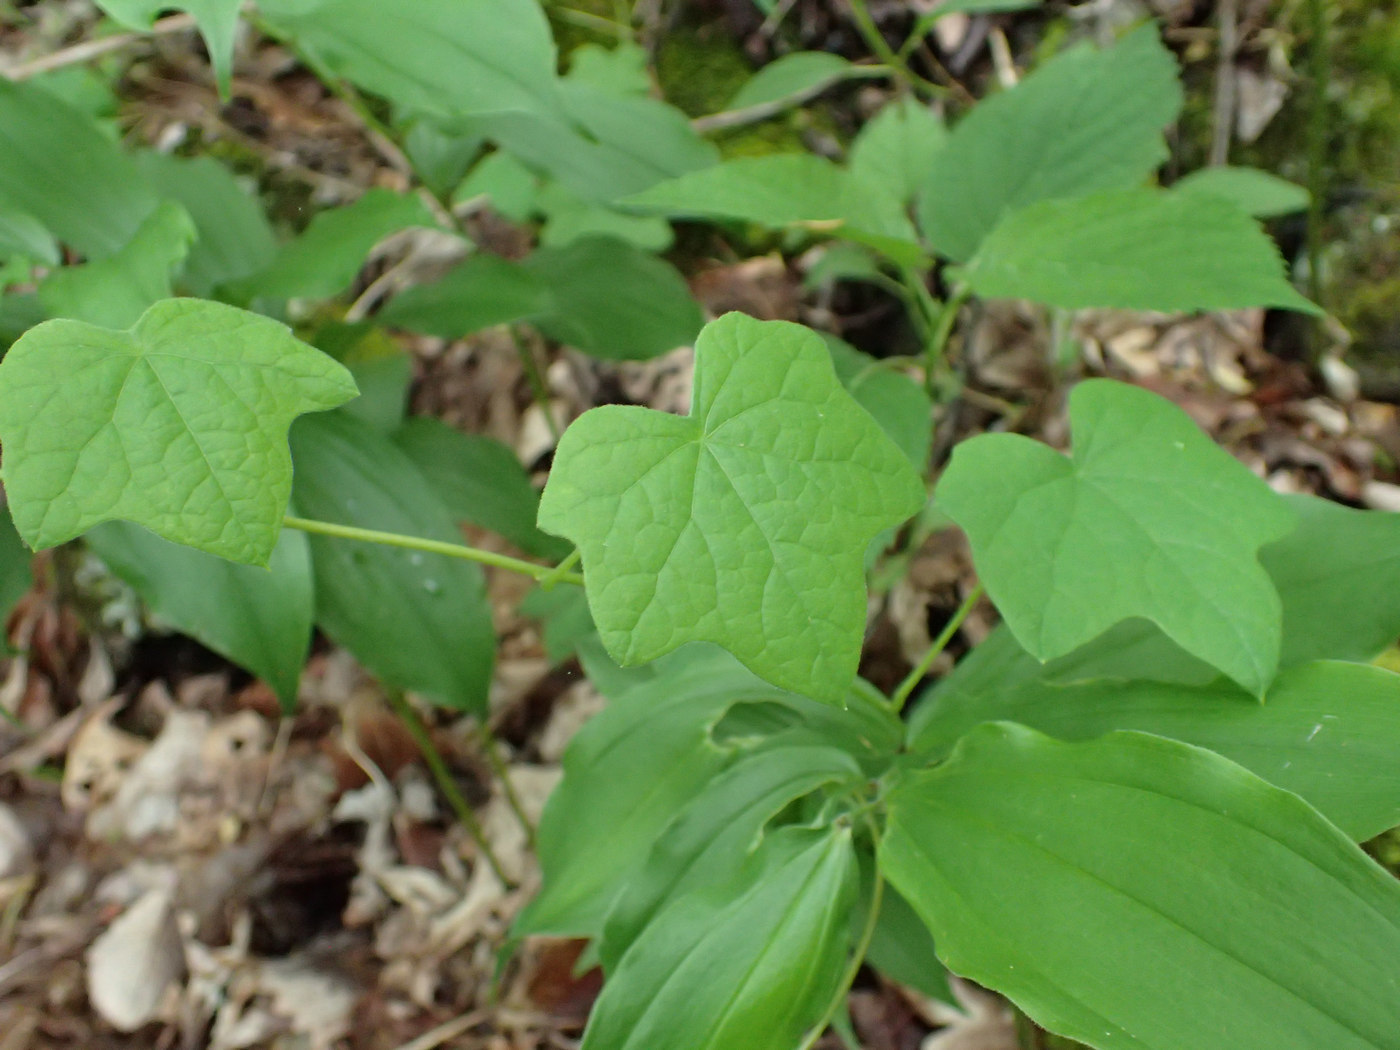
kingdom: Plantae
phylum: Tracheophyta
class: Magnoliopsida
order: Ranunculales
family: Menispermaceae
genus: Menispermum
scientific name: Menispermum canadense
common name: Moonseed
